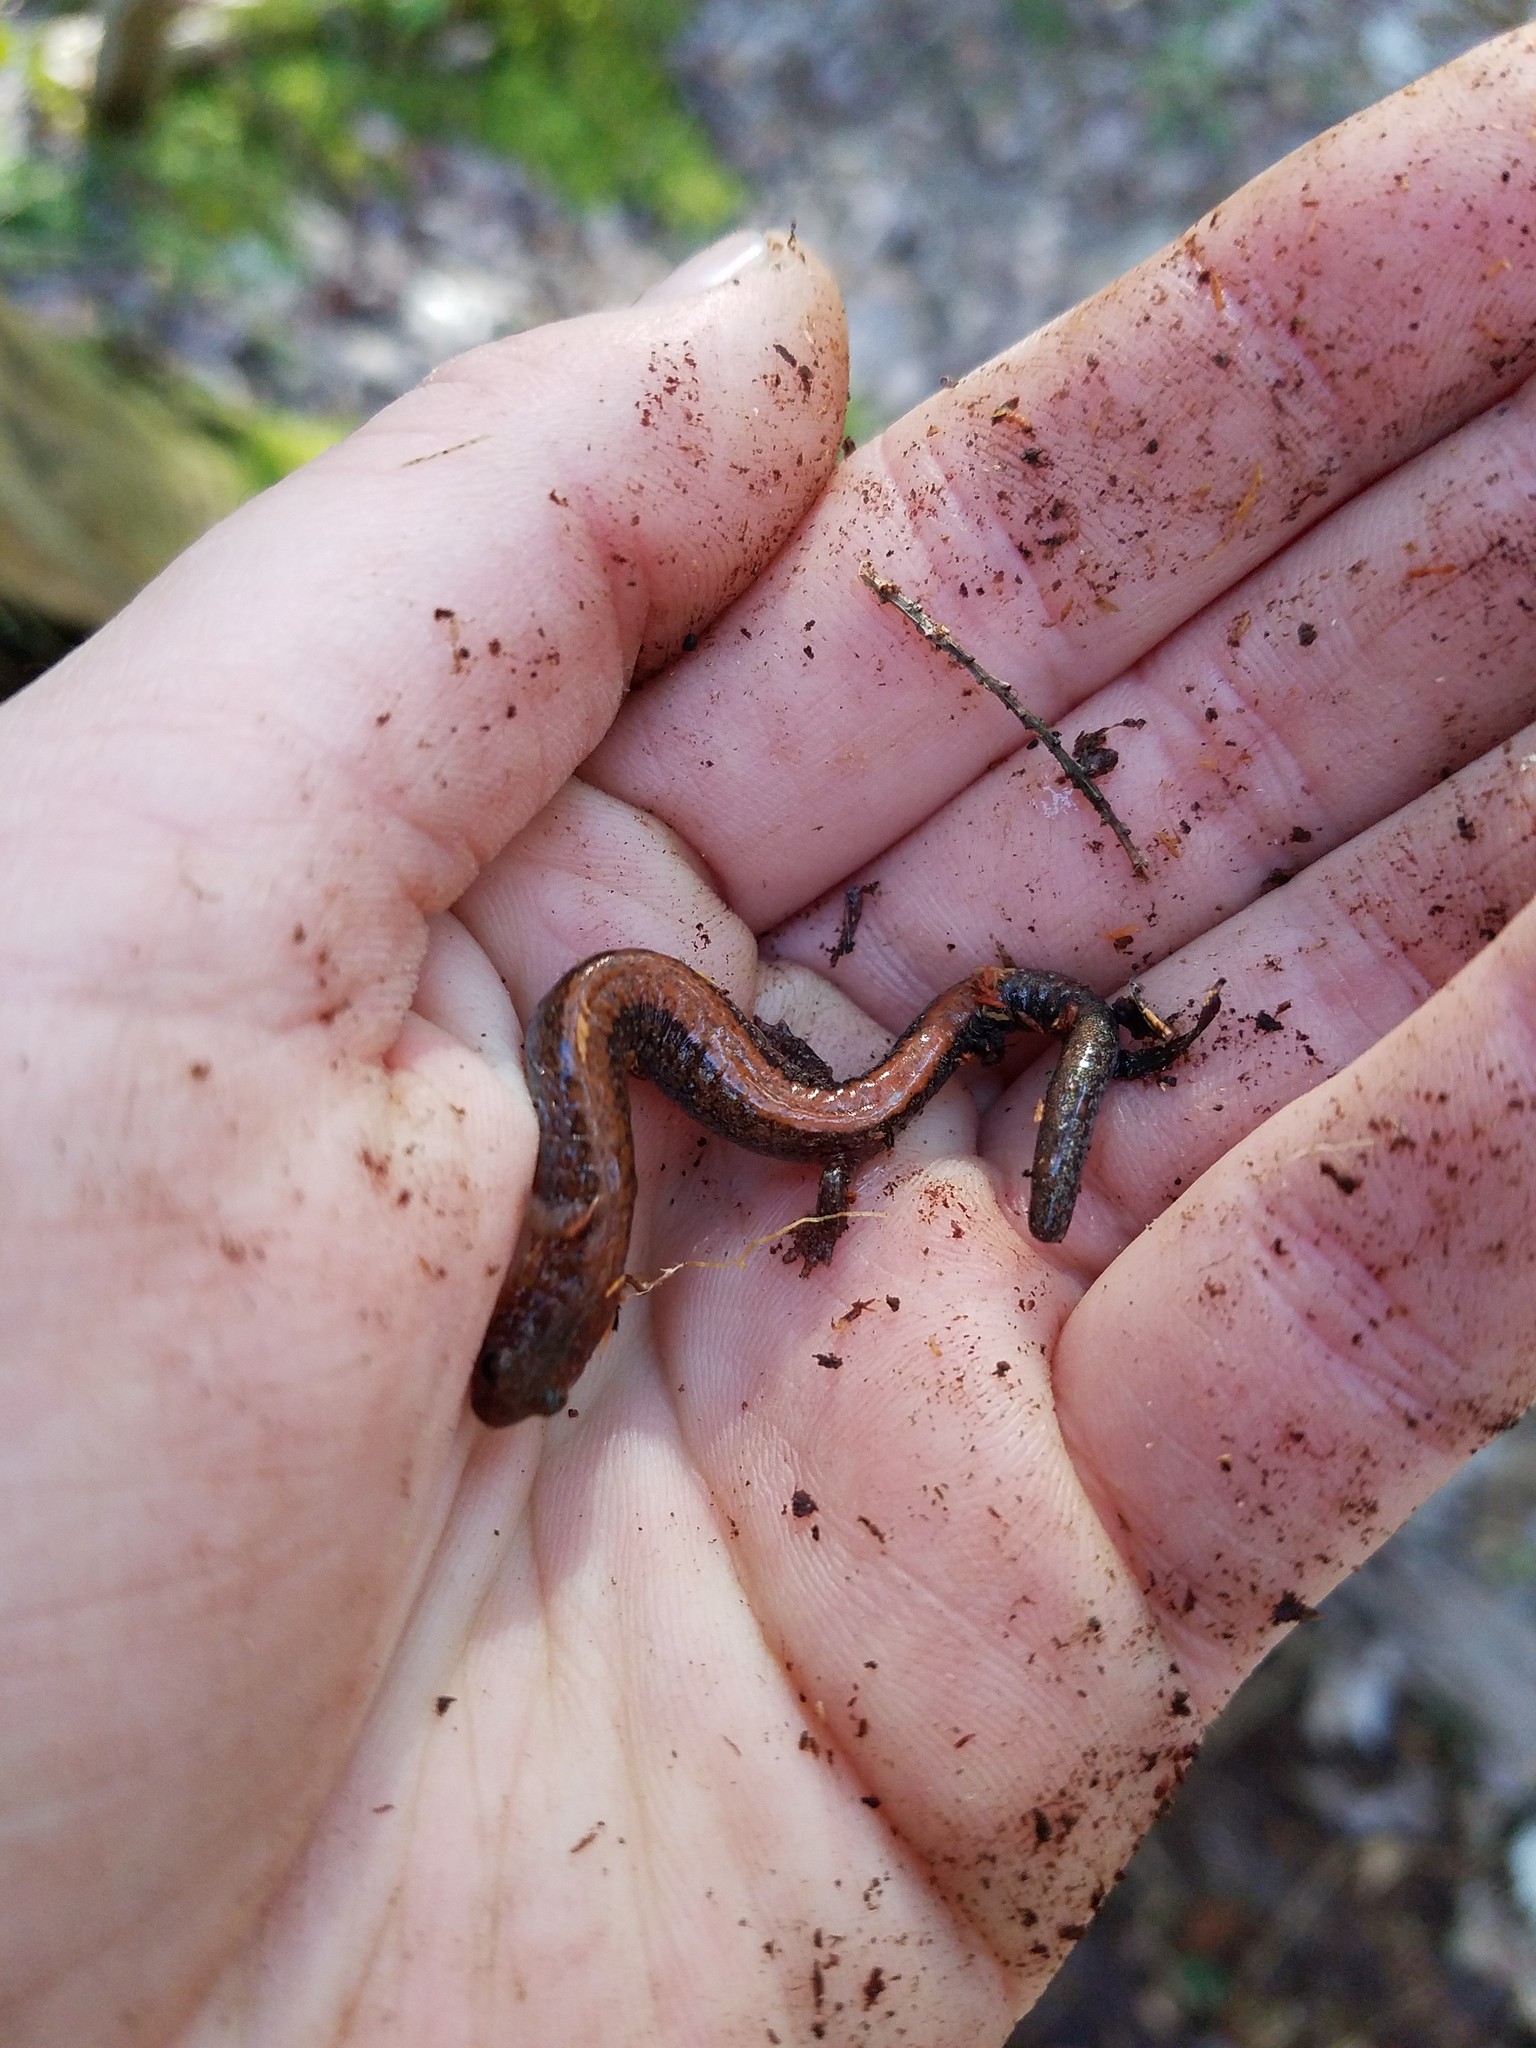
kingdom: Animalia
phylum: Chordata
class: Amphibia
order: Caudata
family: Plethodontidae
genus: Plethodon
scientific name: Plethodon cinereus
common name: Redback salamander
